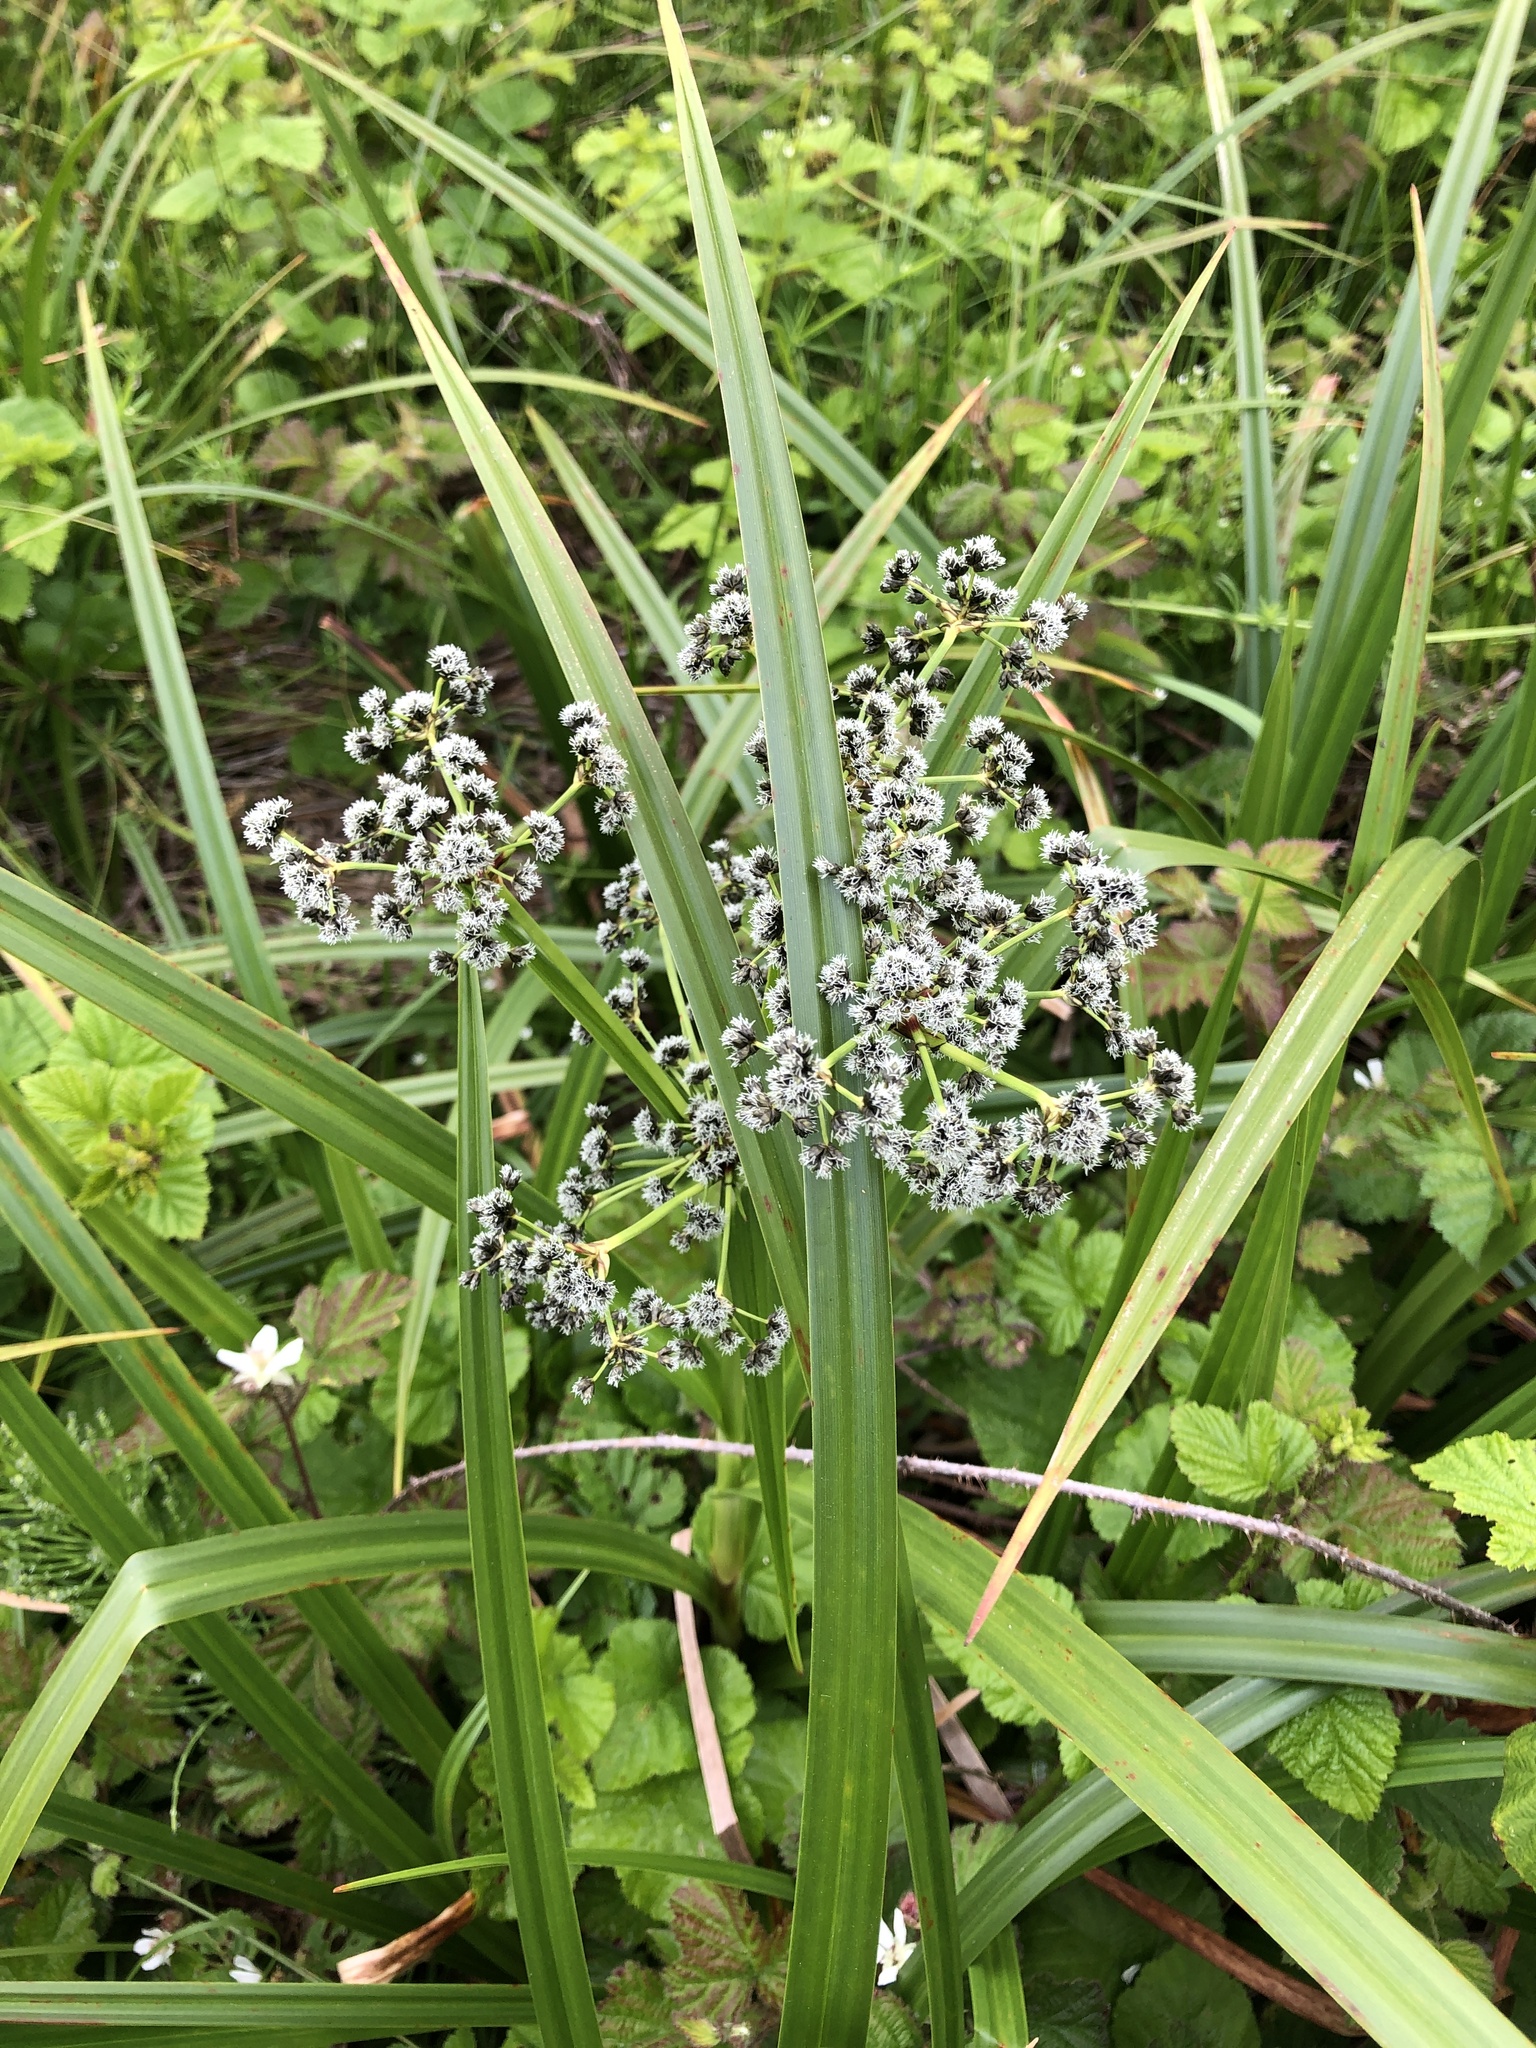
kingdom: Plantae
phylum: Tracheophyta
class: Liliopsida
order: Poales
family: Cyperaceae
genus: Scirpus
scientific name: Scirpus microcarpus
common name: Panicled bulrush
